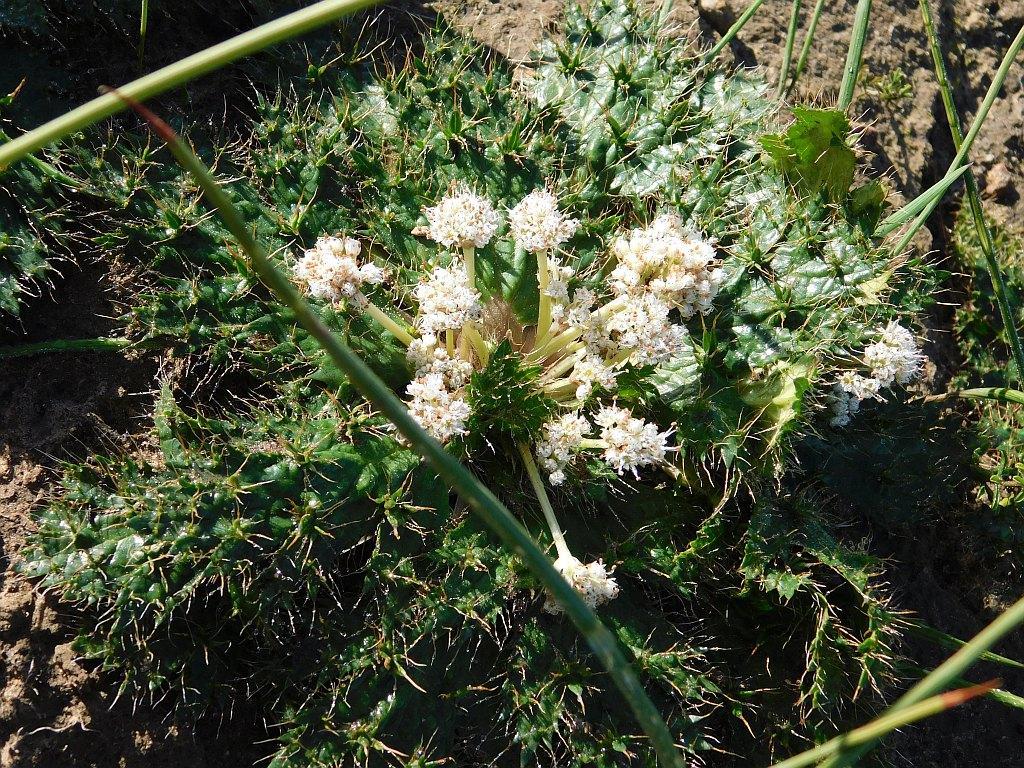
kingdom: Plantae
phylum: Tracheophyta
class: Magnoliopsida
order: Apiales
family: Apiaceae
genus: Arctopus
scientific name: Arctopus echinatus
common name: Platdoring
